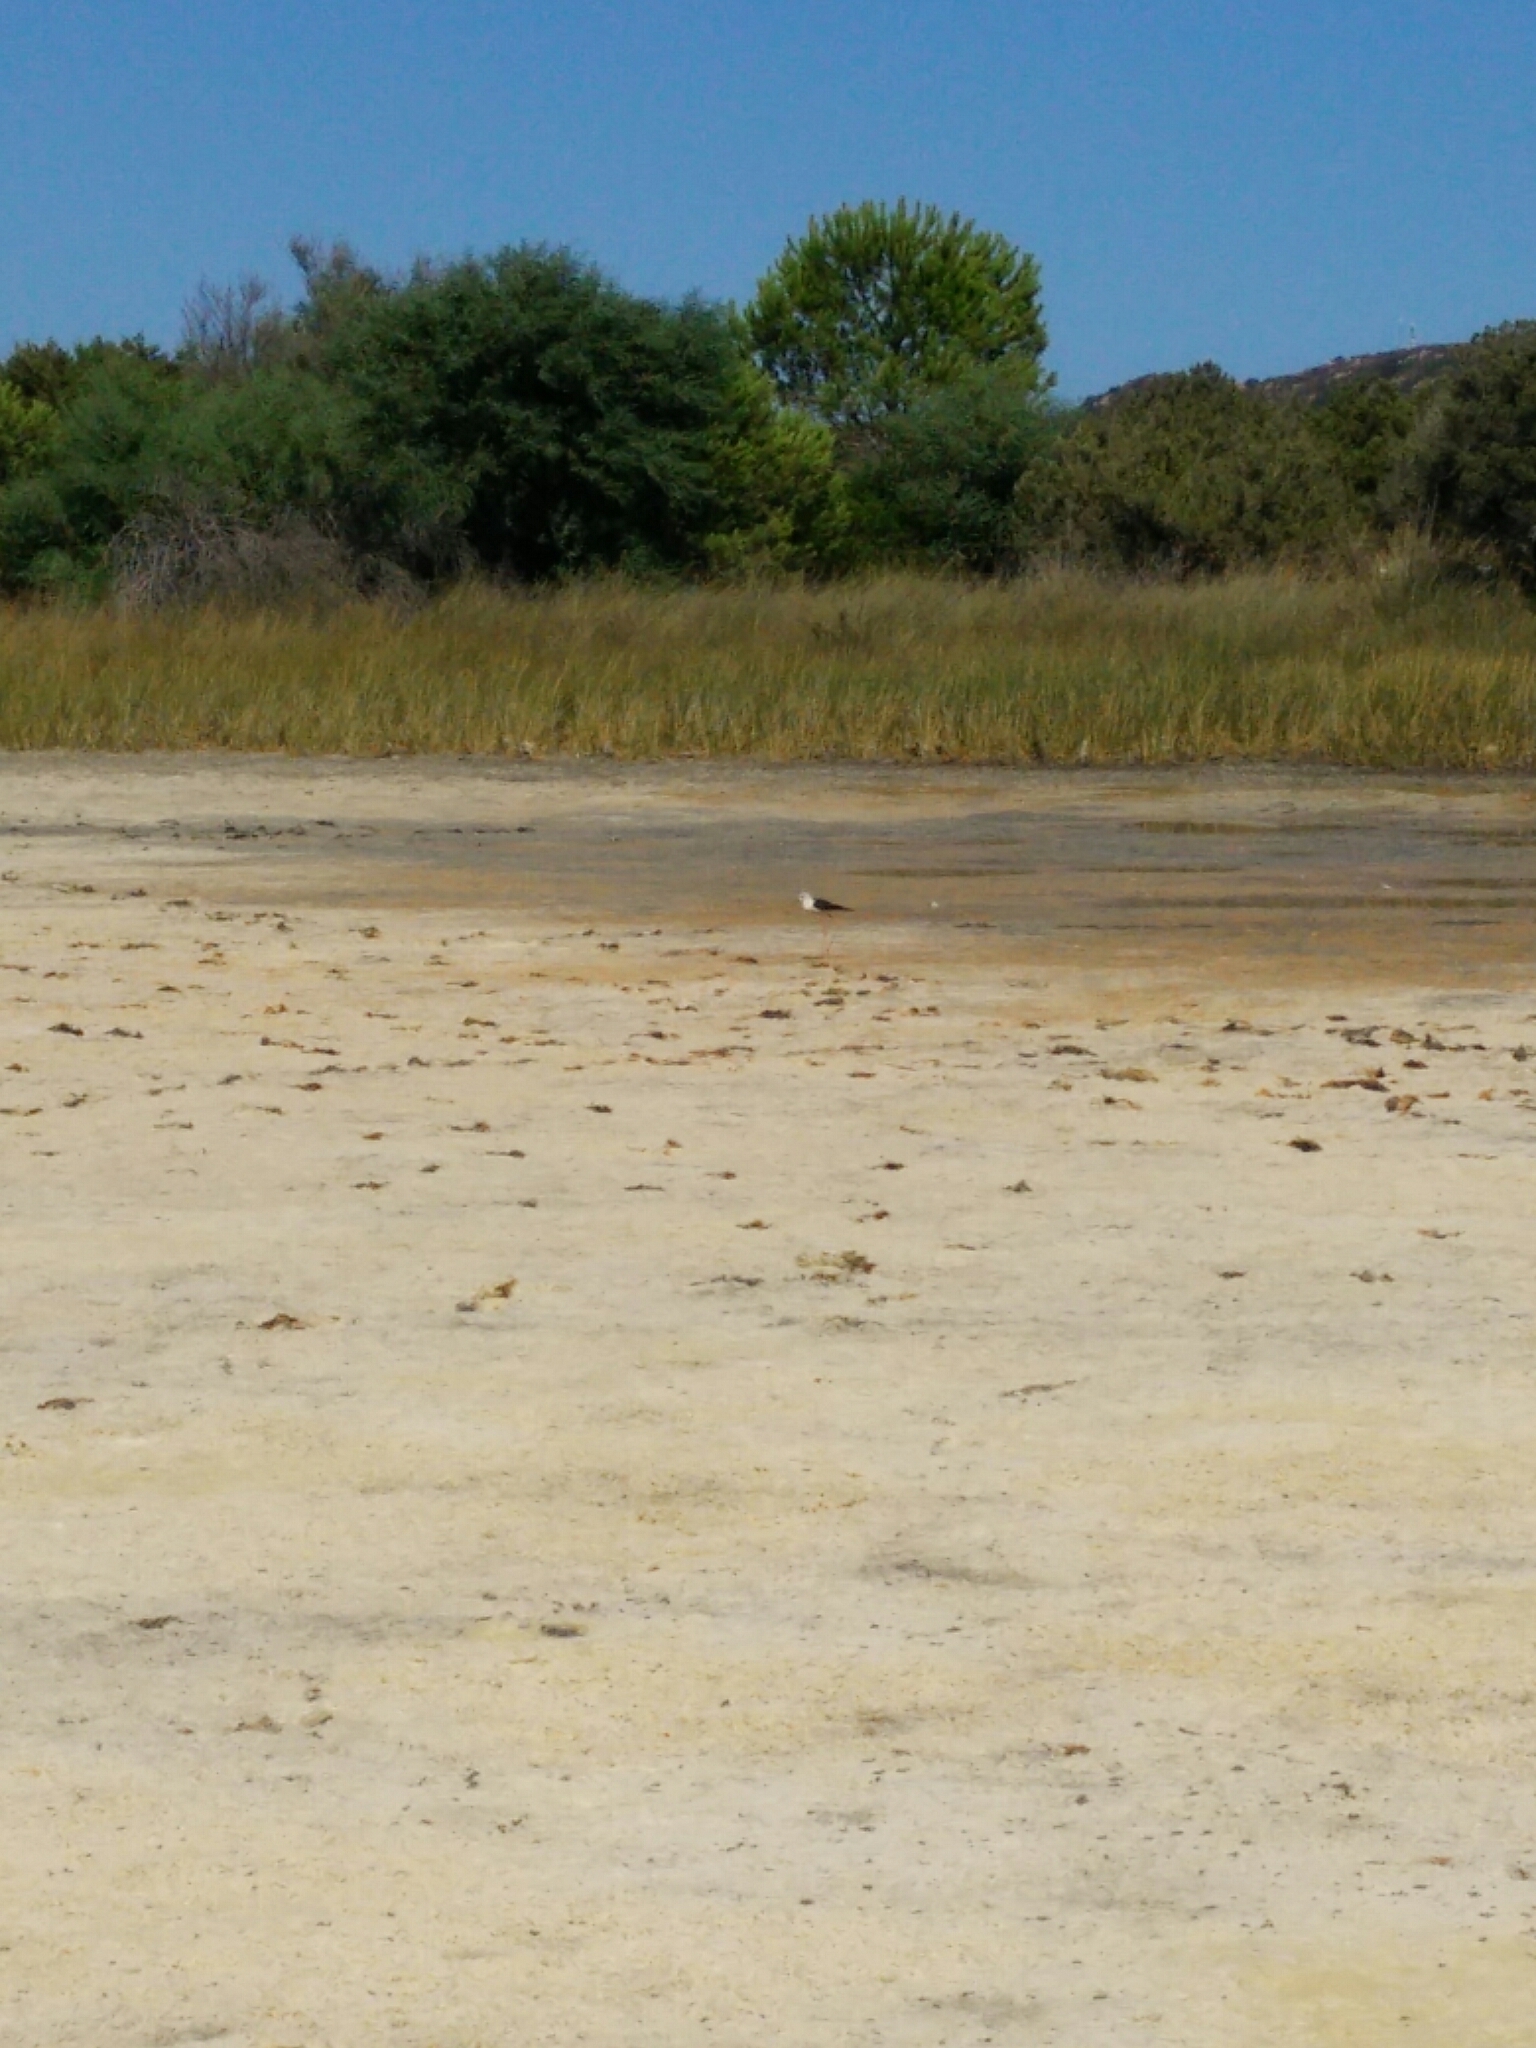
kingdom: Animalia
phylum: Chordata
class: Aves
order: Charadriiformes
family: Recurvirostridae
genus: Himantopus
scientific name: Himantopus himantopus
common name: Black-winged stilt
